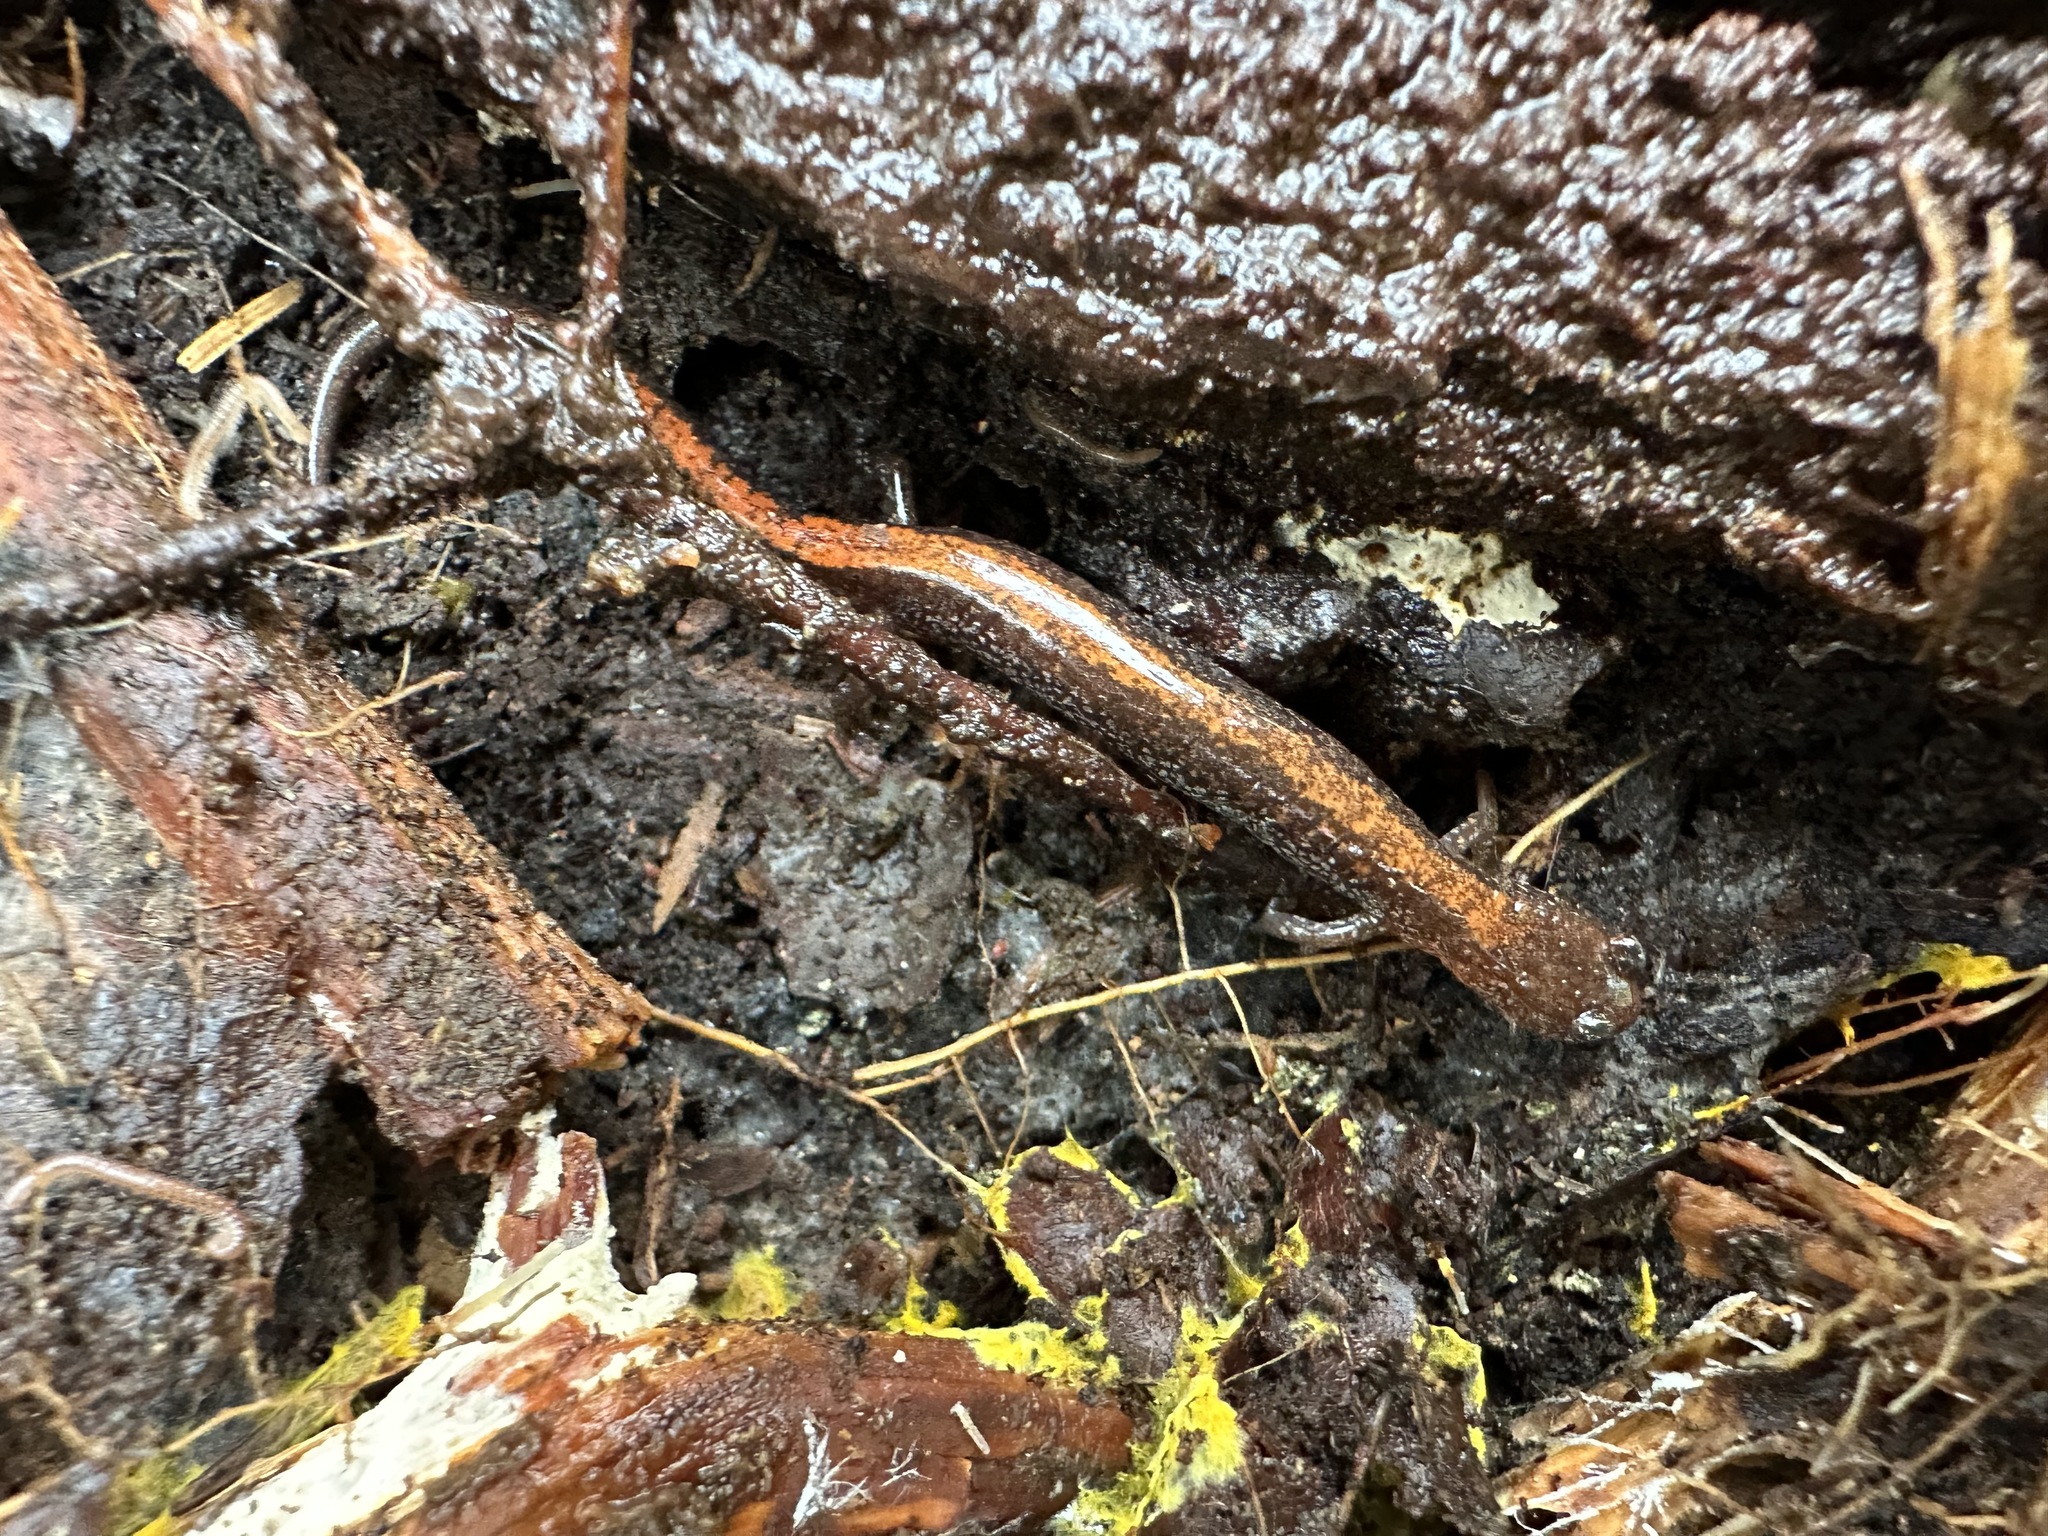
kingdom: Animalia
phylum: Chordata
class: Amphibia
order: Caudata
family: Plethodontidae
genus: Plethodon
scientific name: Plethodon cinereus
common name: Redback salamander
